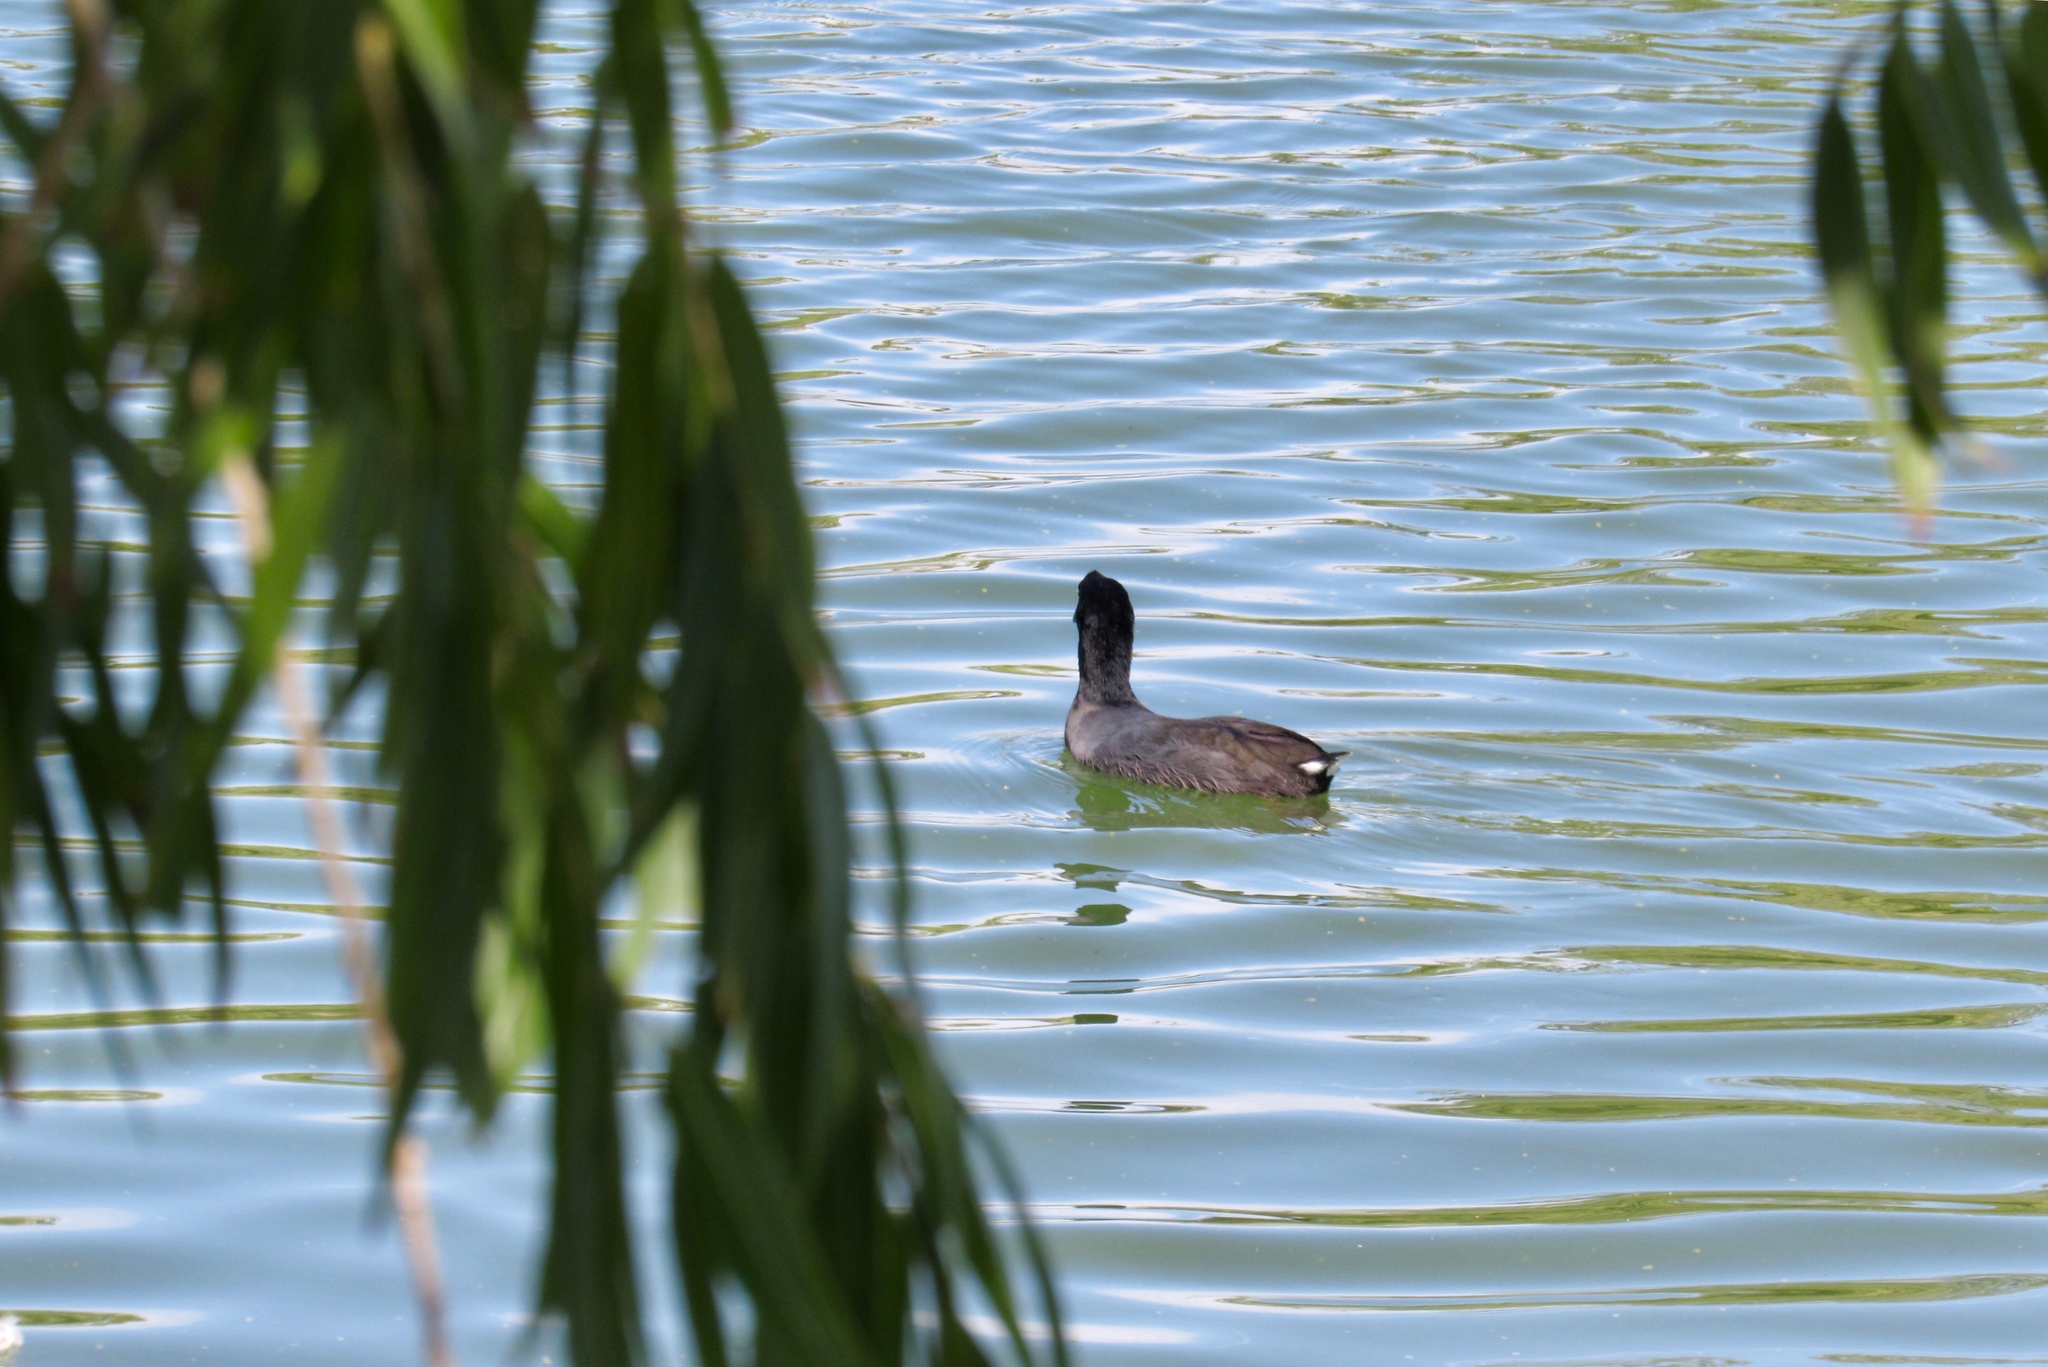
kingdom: Animalia
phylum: Chordata
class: Aves
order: Gruiformes
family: Rallidae
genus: Fulica
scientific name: Fulica americana
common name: American coot
